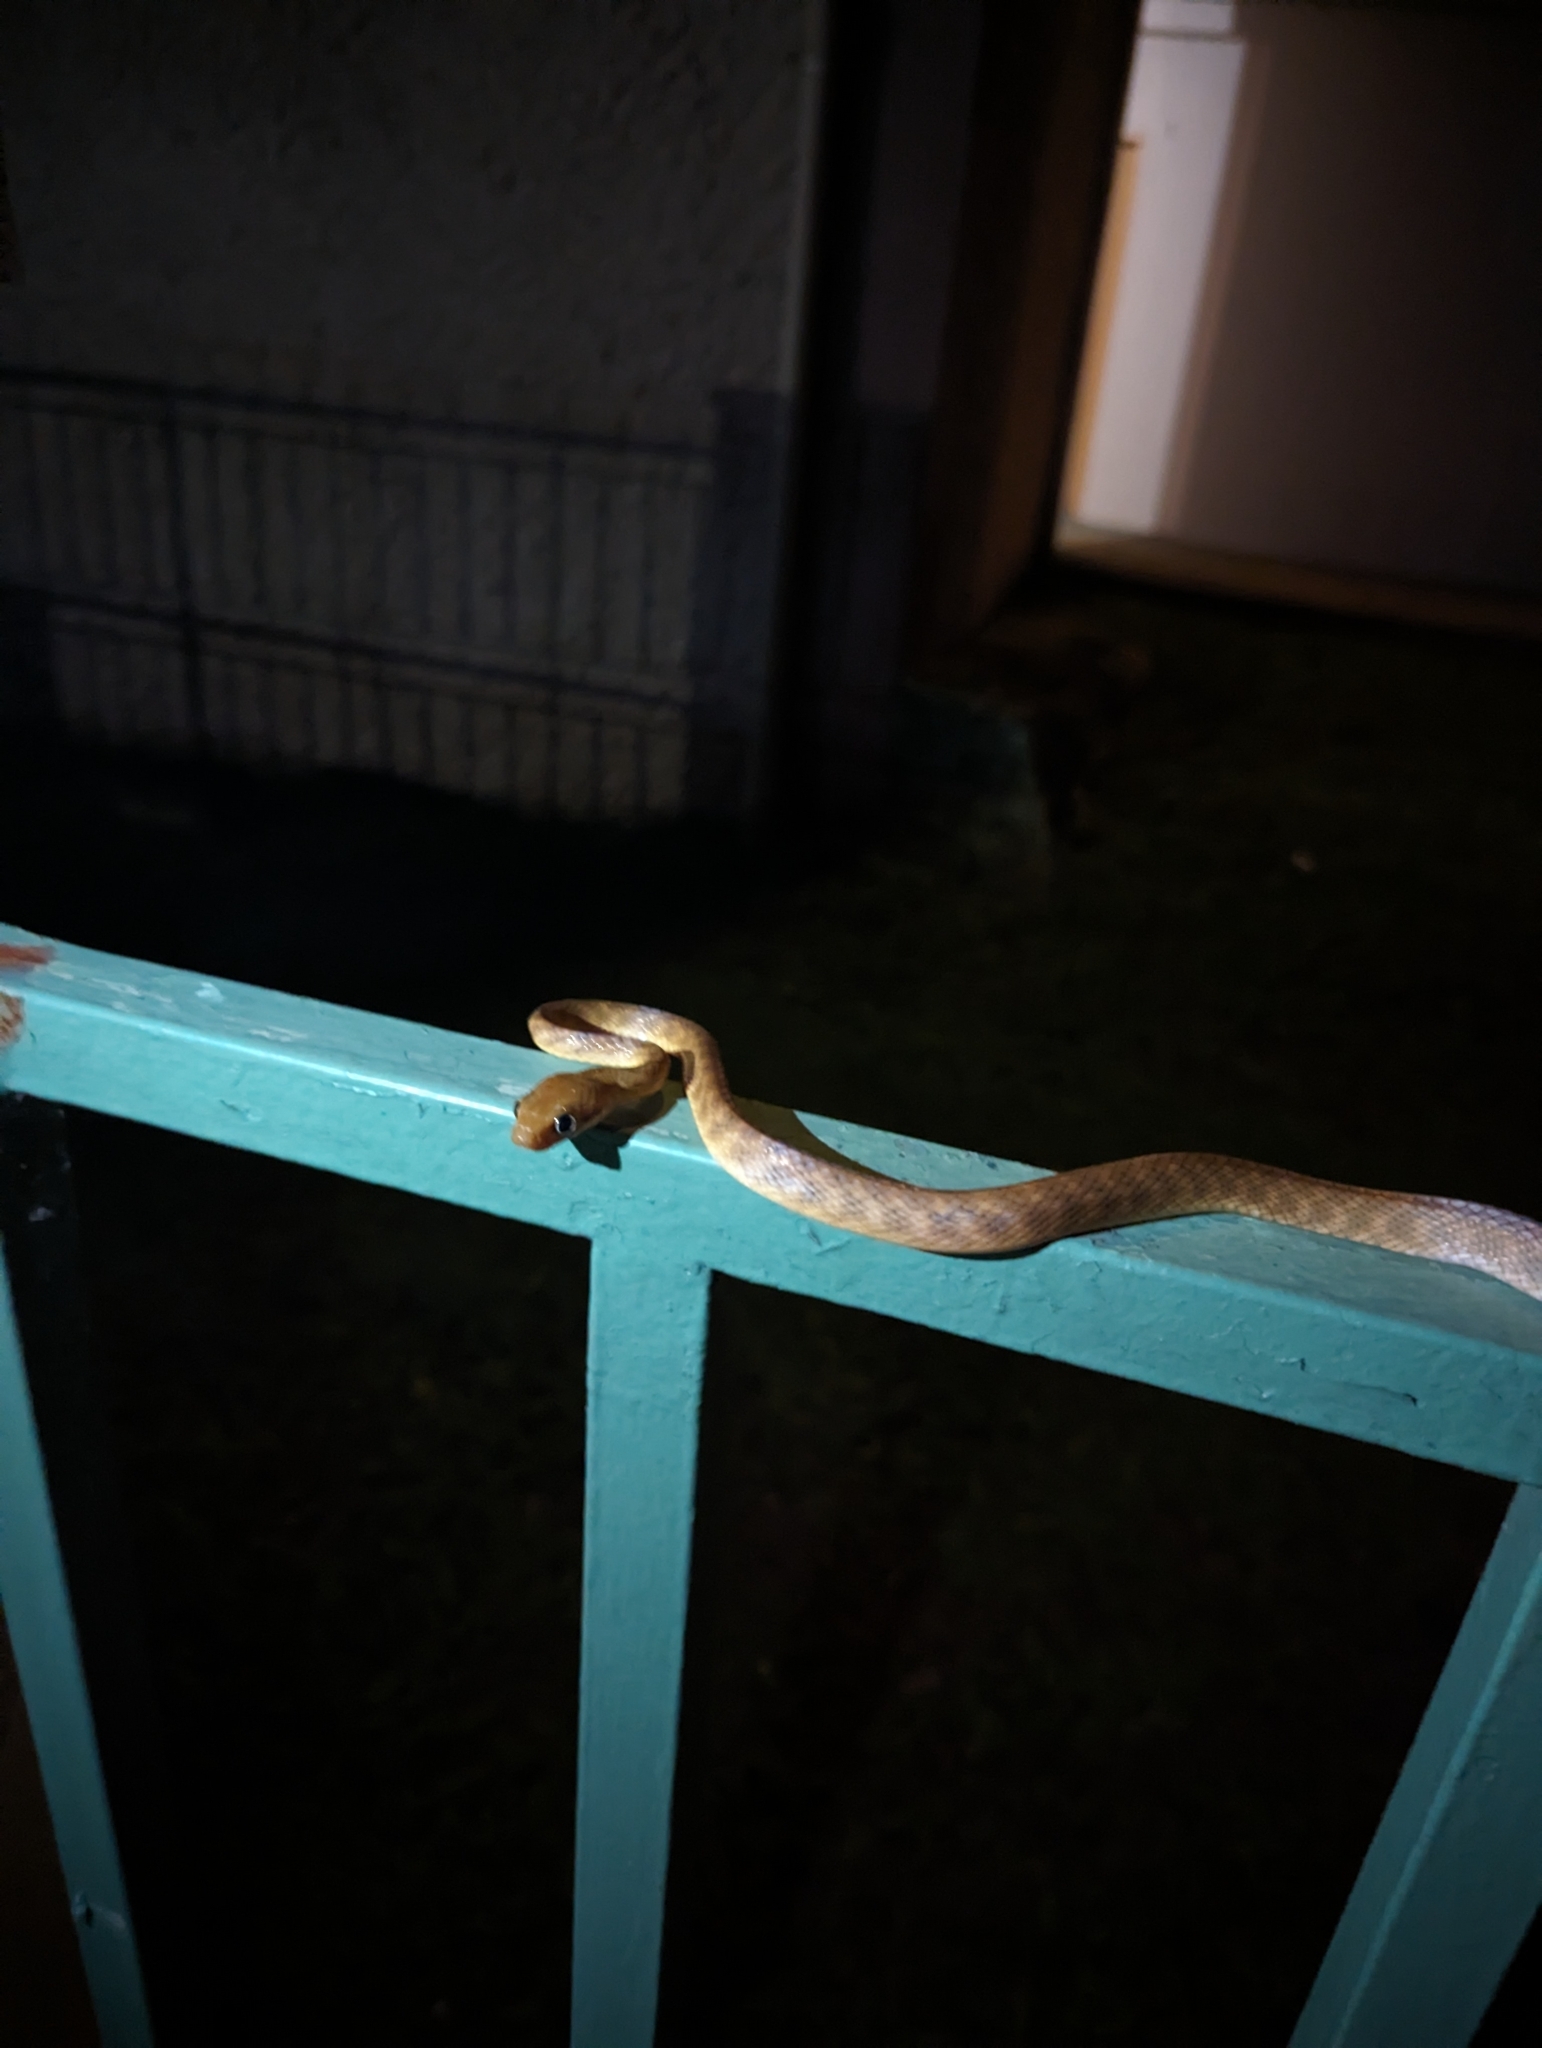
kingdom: Animalia
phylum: Chordata
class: Squamata
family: Colubridae
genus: Boiga
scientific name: Boiga irregularis
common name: Brown tree snake
